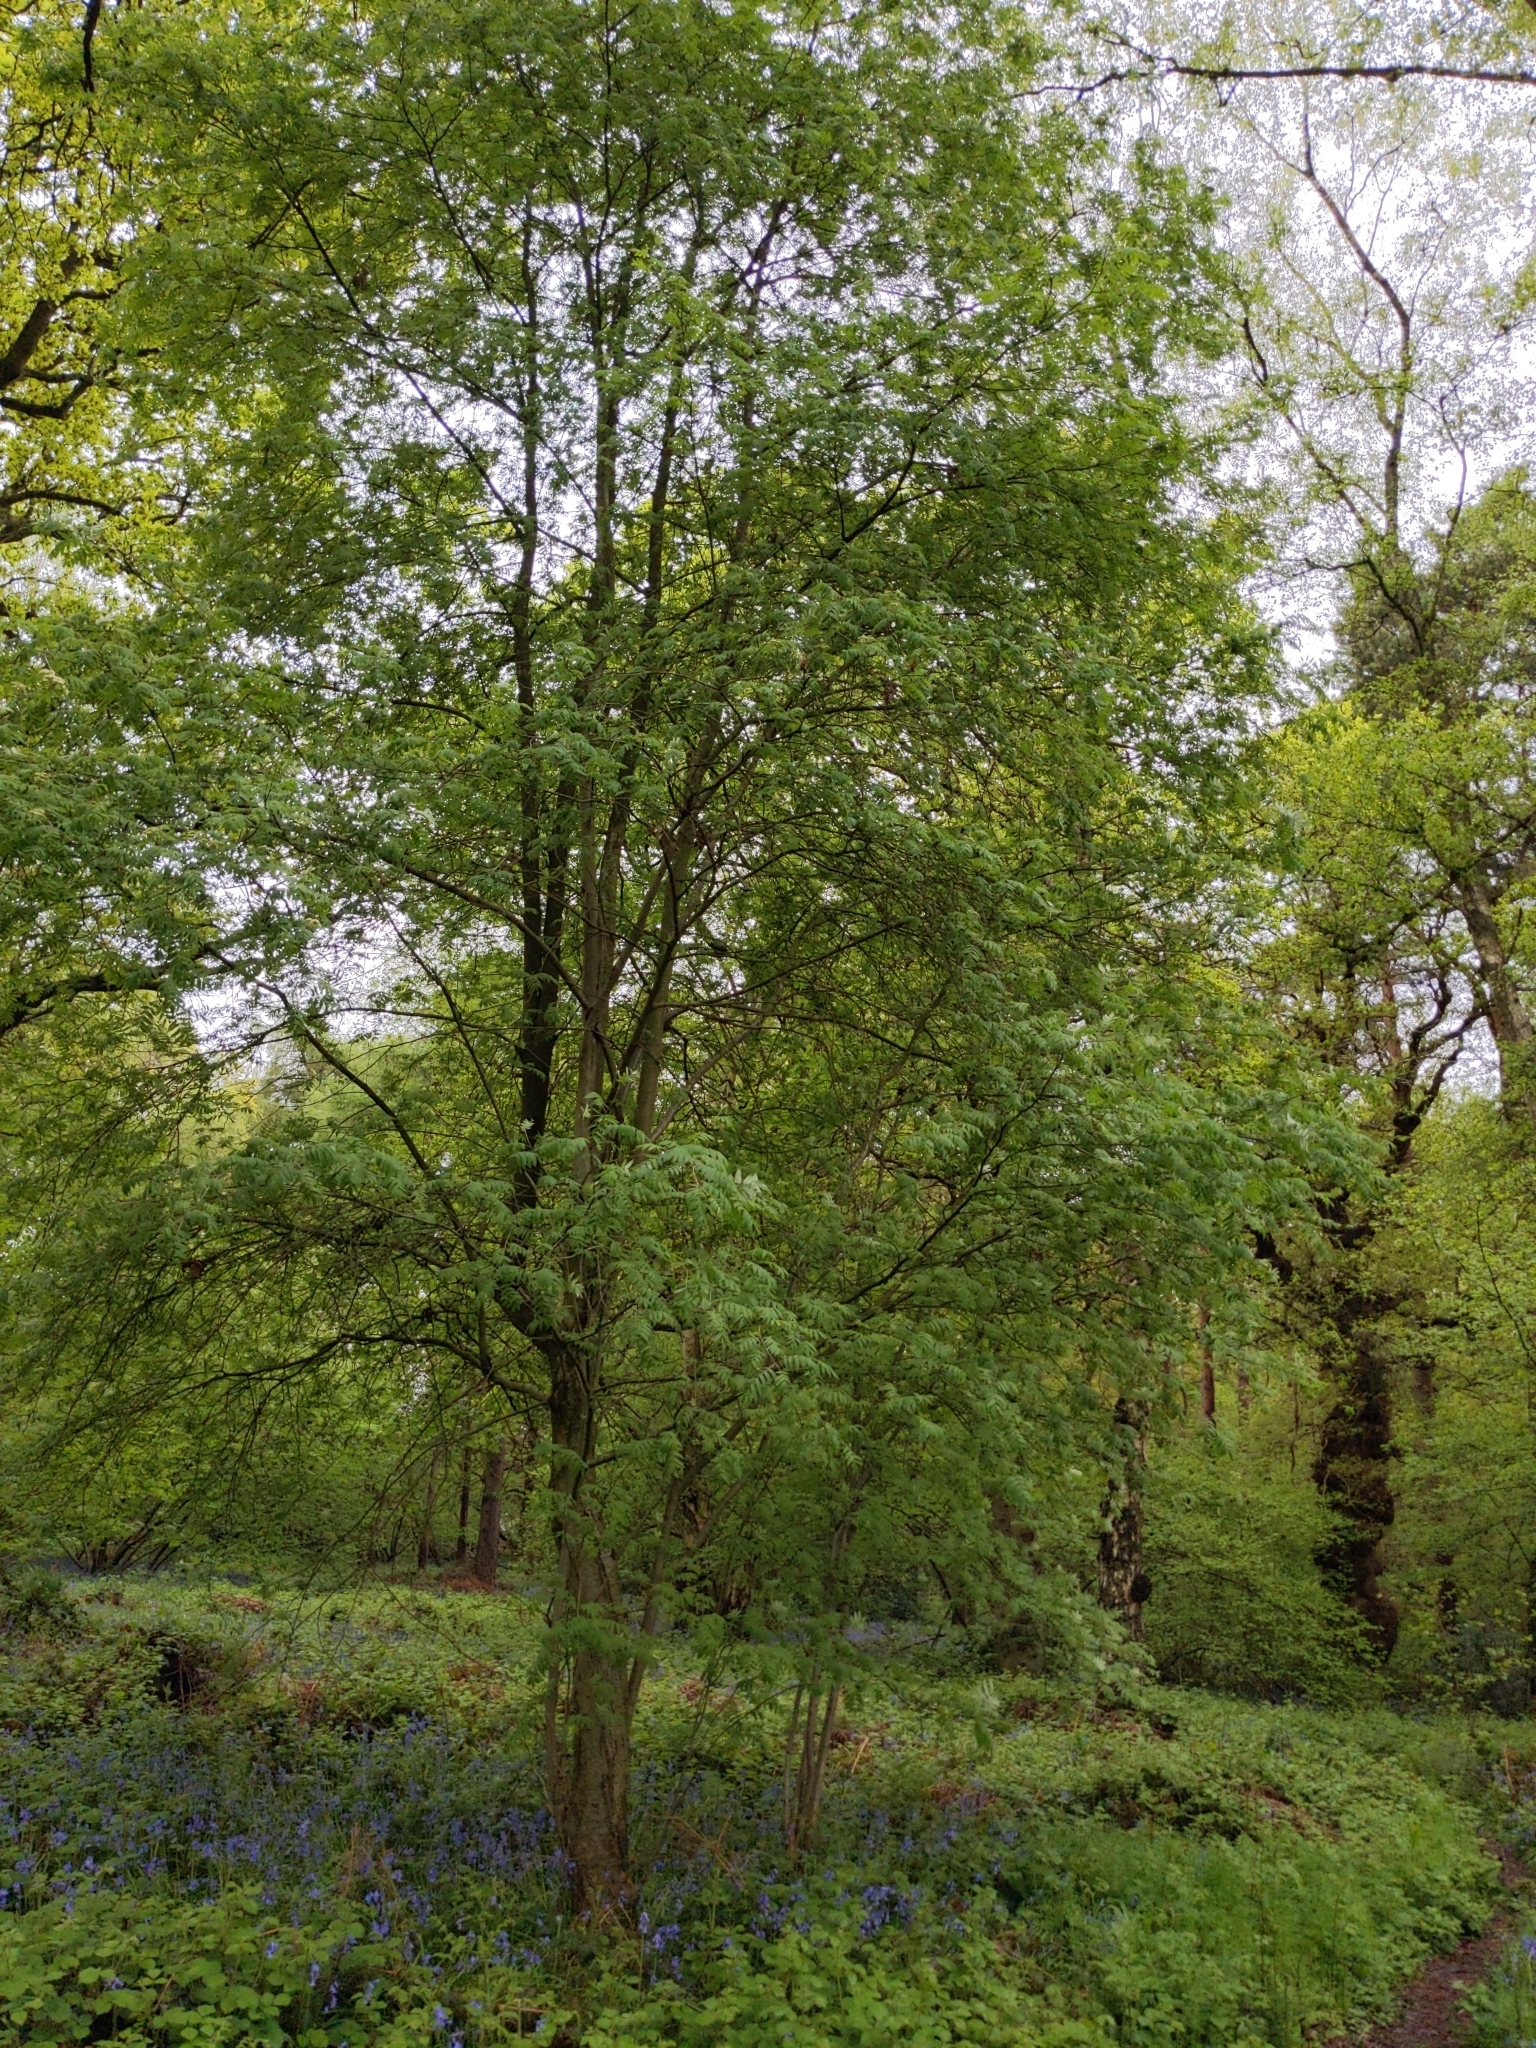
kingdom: Plantae
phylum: Tracheophyta
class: Magnoliopsida
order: Rosales
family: Rosaceae
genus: Sorbus
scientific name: Sorbus aucuparia
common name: Rowan
